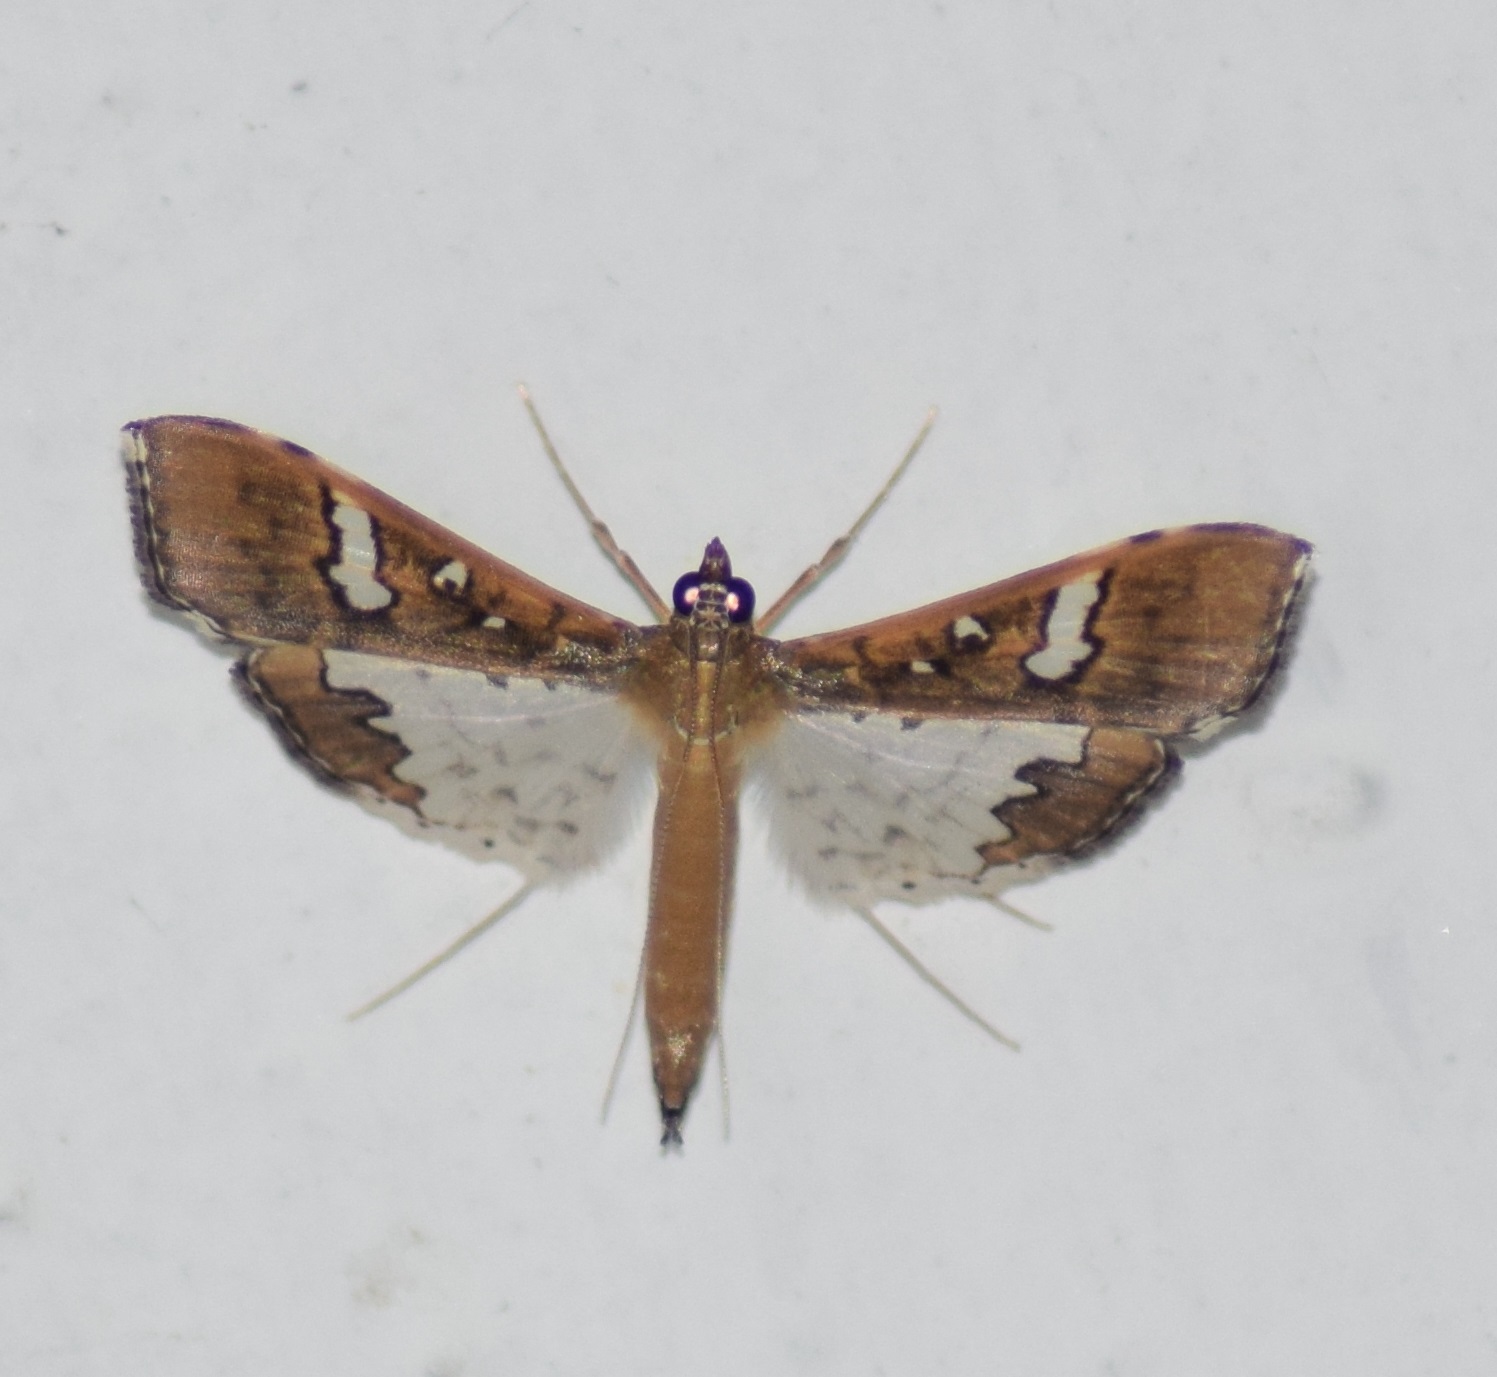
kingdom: Animalia
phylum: Arthropoda
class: Insecta
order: Lepidoptera
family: Crambidae
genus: Maruca
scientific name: Maruca vitrata
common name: Maruca pod borer
